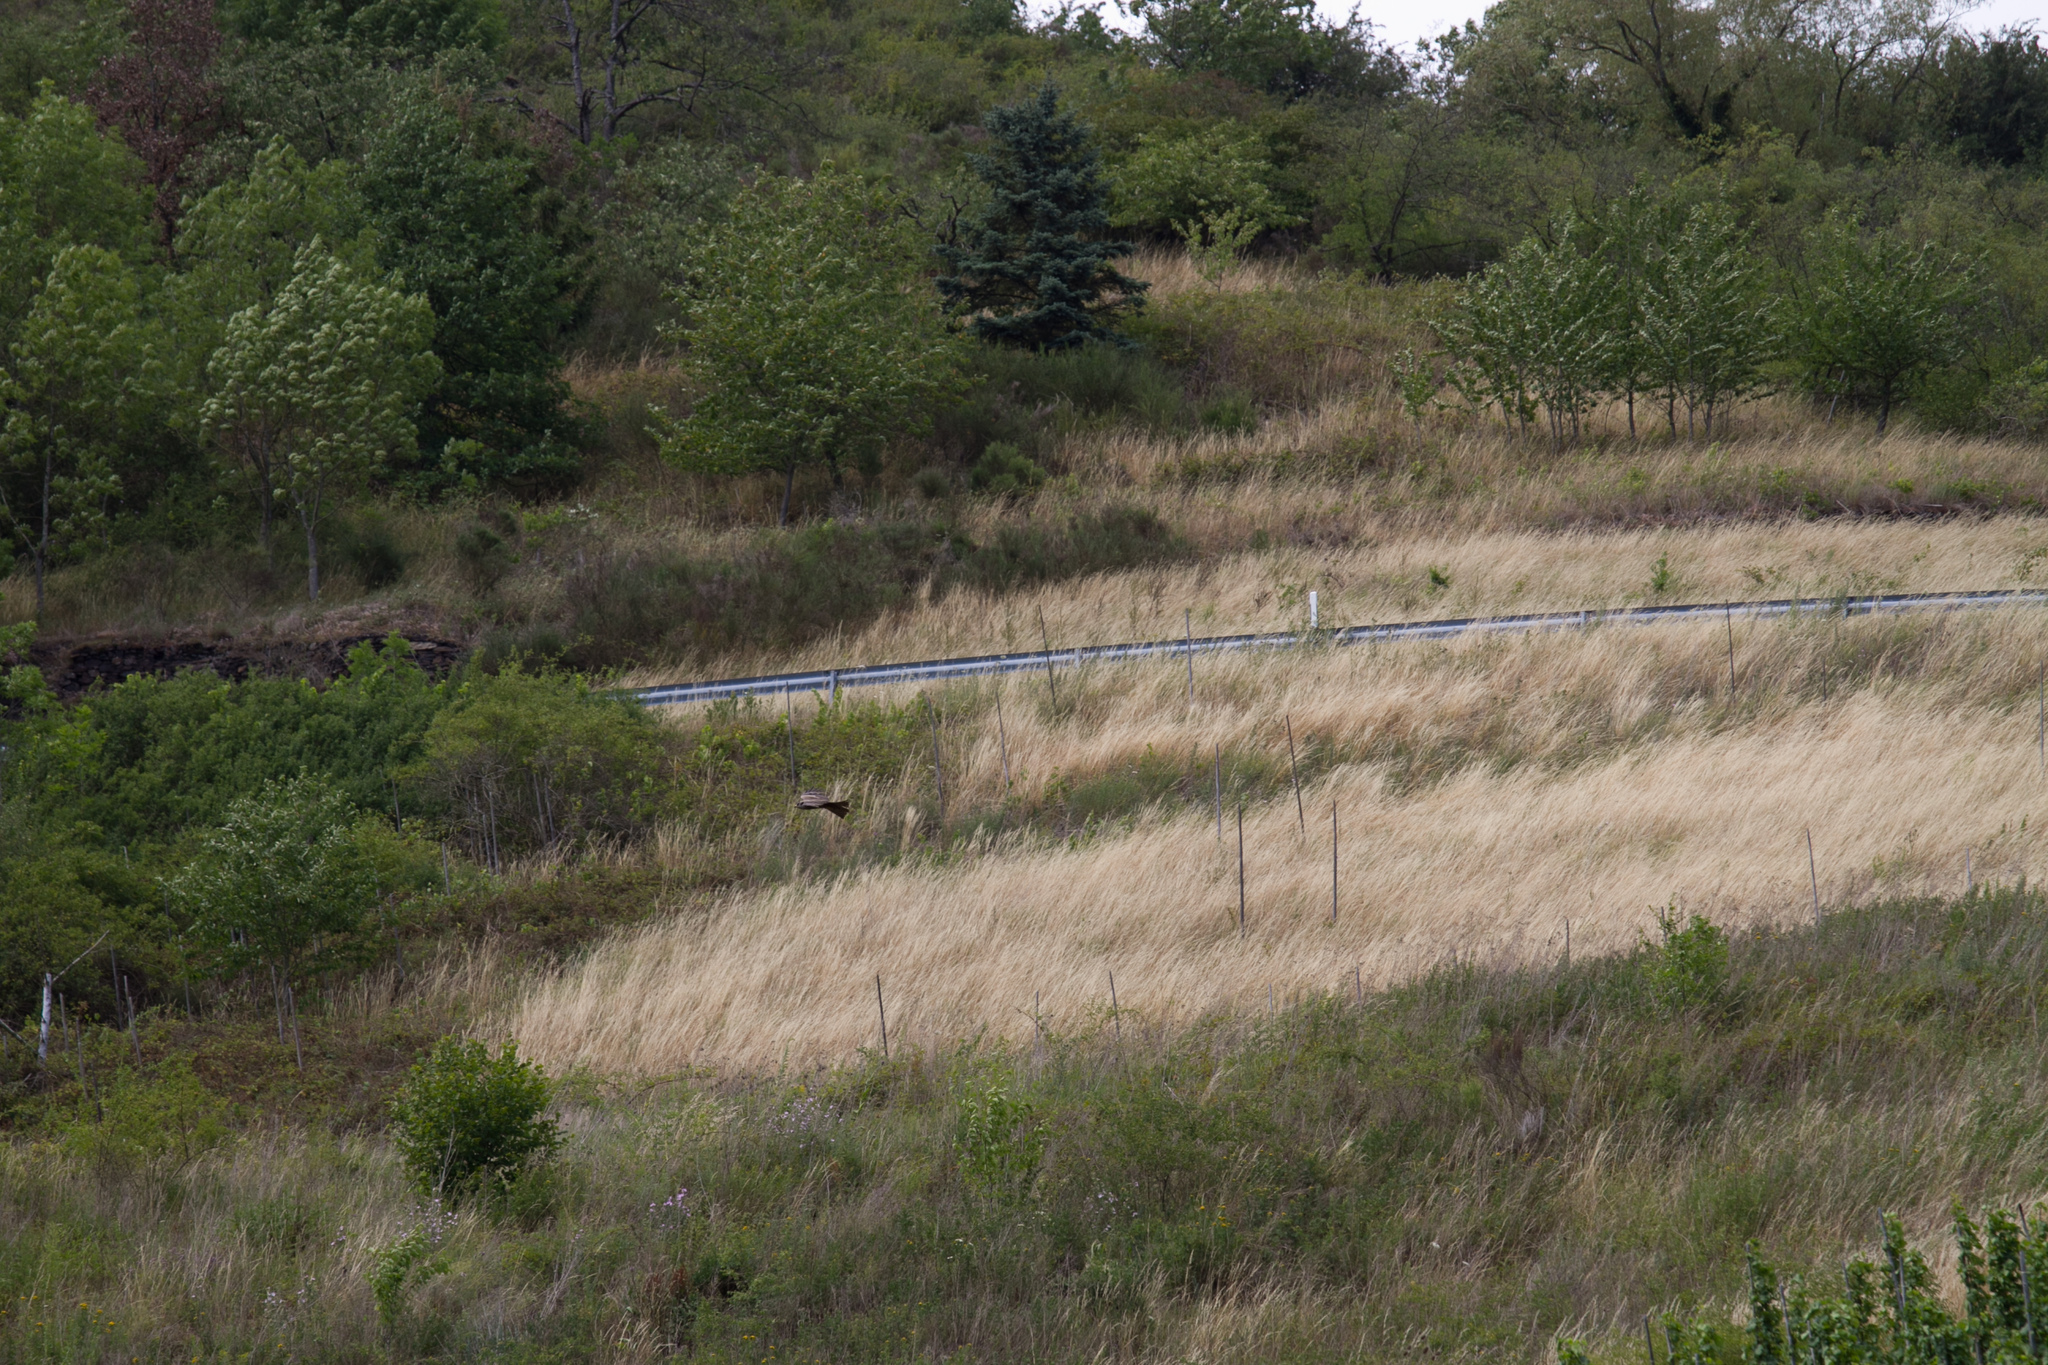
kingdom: Animalia
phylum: Chordata
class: Aves
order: Accipitriformes
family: Accipitridae
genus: Milvus
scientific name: Milvus migrans
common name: Black kite
